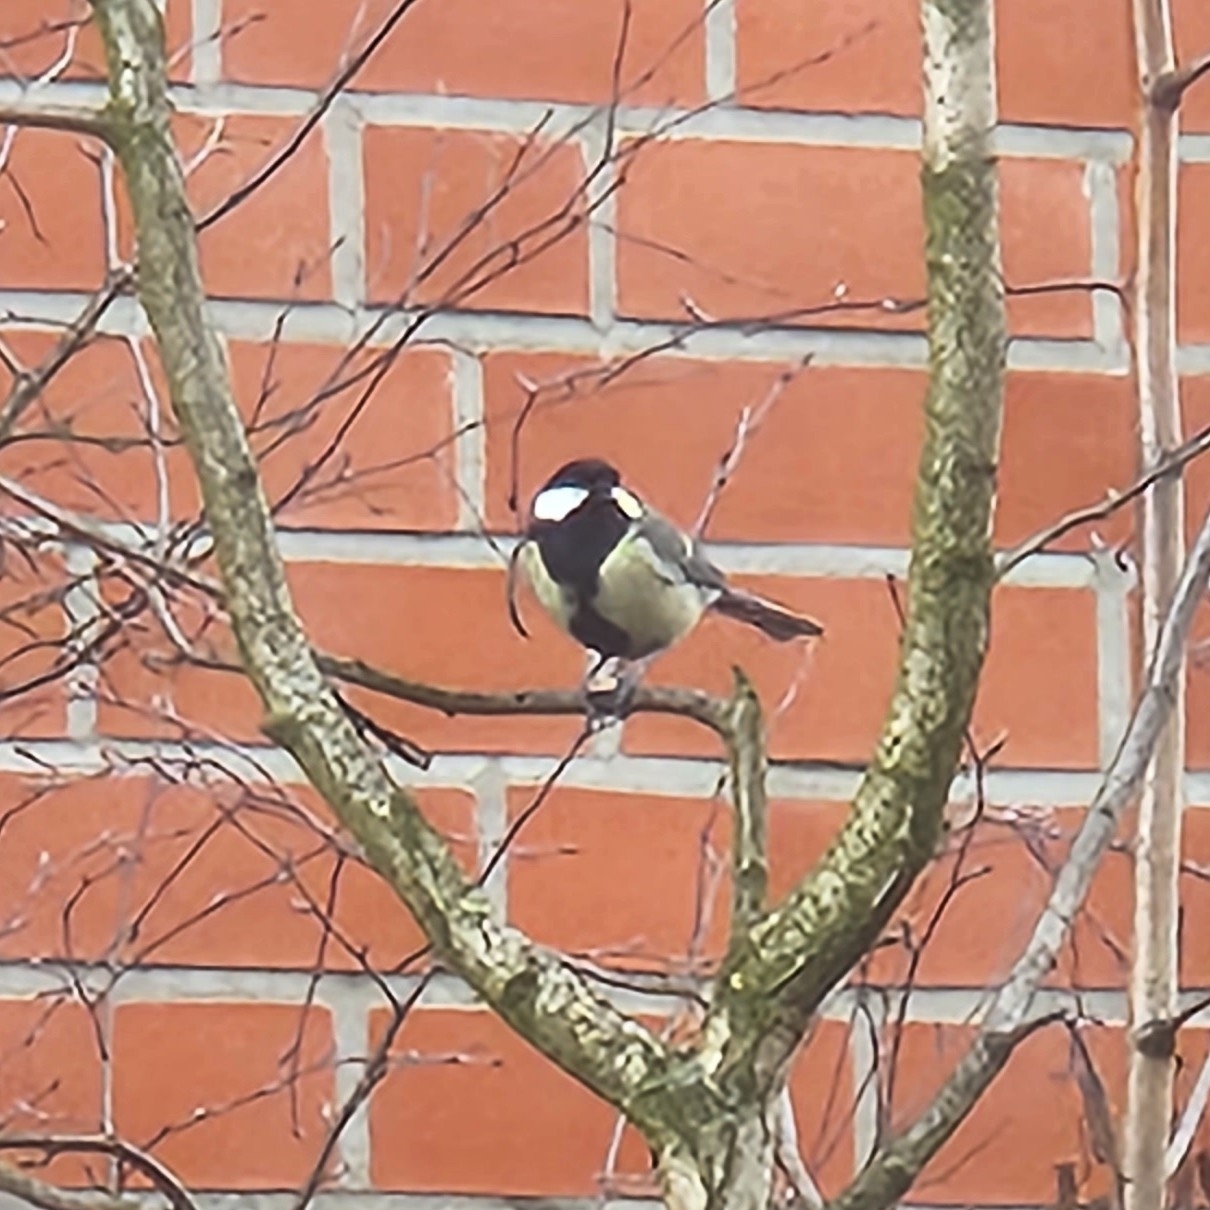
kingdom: Animalia
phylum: Chordata
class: Aves
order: Passeriformes
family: Paridae
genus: Parus
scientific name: Parus major
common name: Great tit
